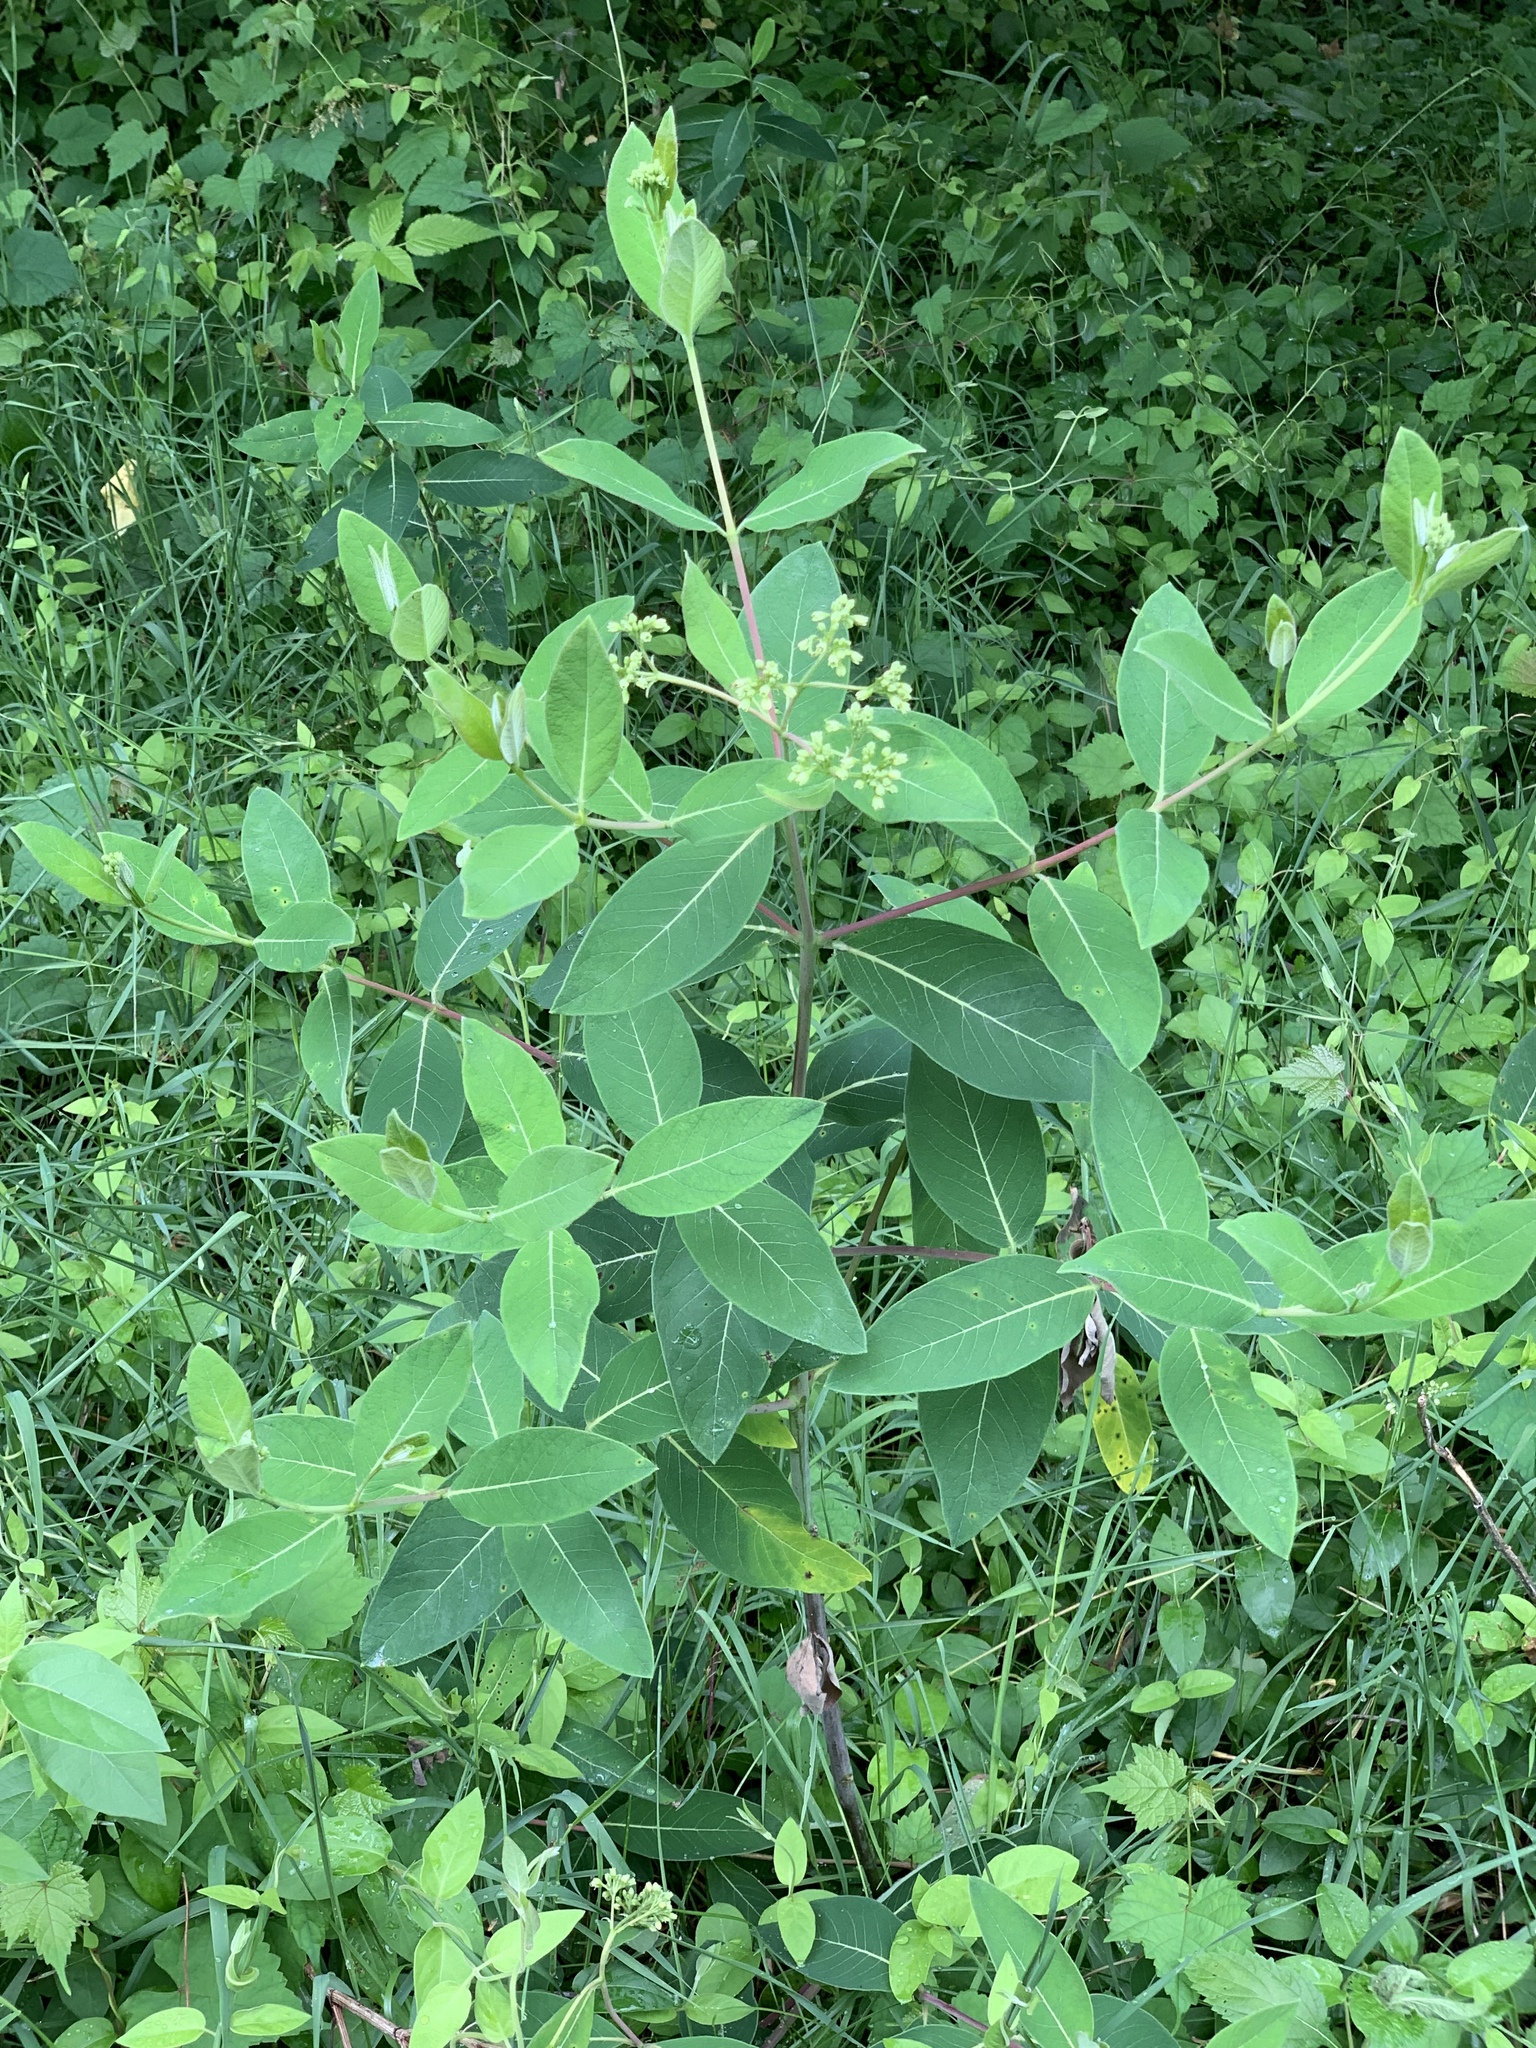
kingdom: Plantae
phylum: Tracheophyta
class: Magnoliopsida
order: Gentianales
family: Apocynaceae
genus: Apocynum
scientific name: Apocynum cannabinum
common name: Hemp dogbane
